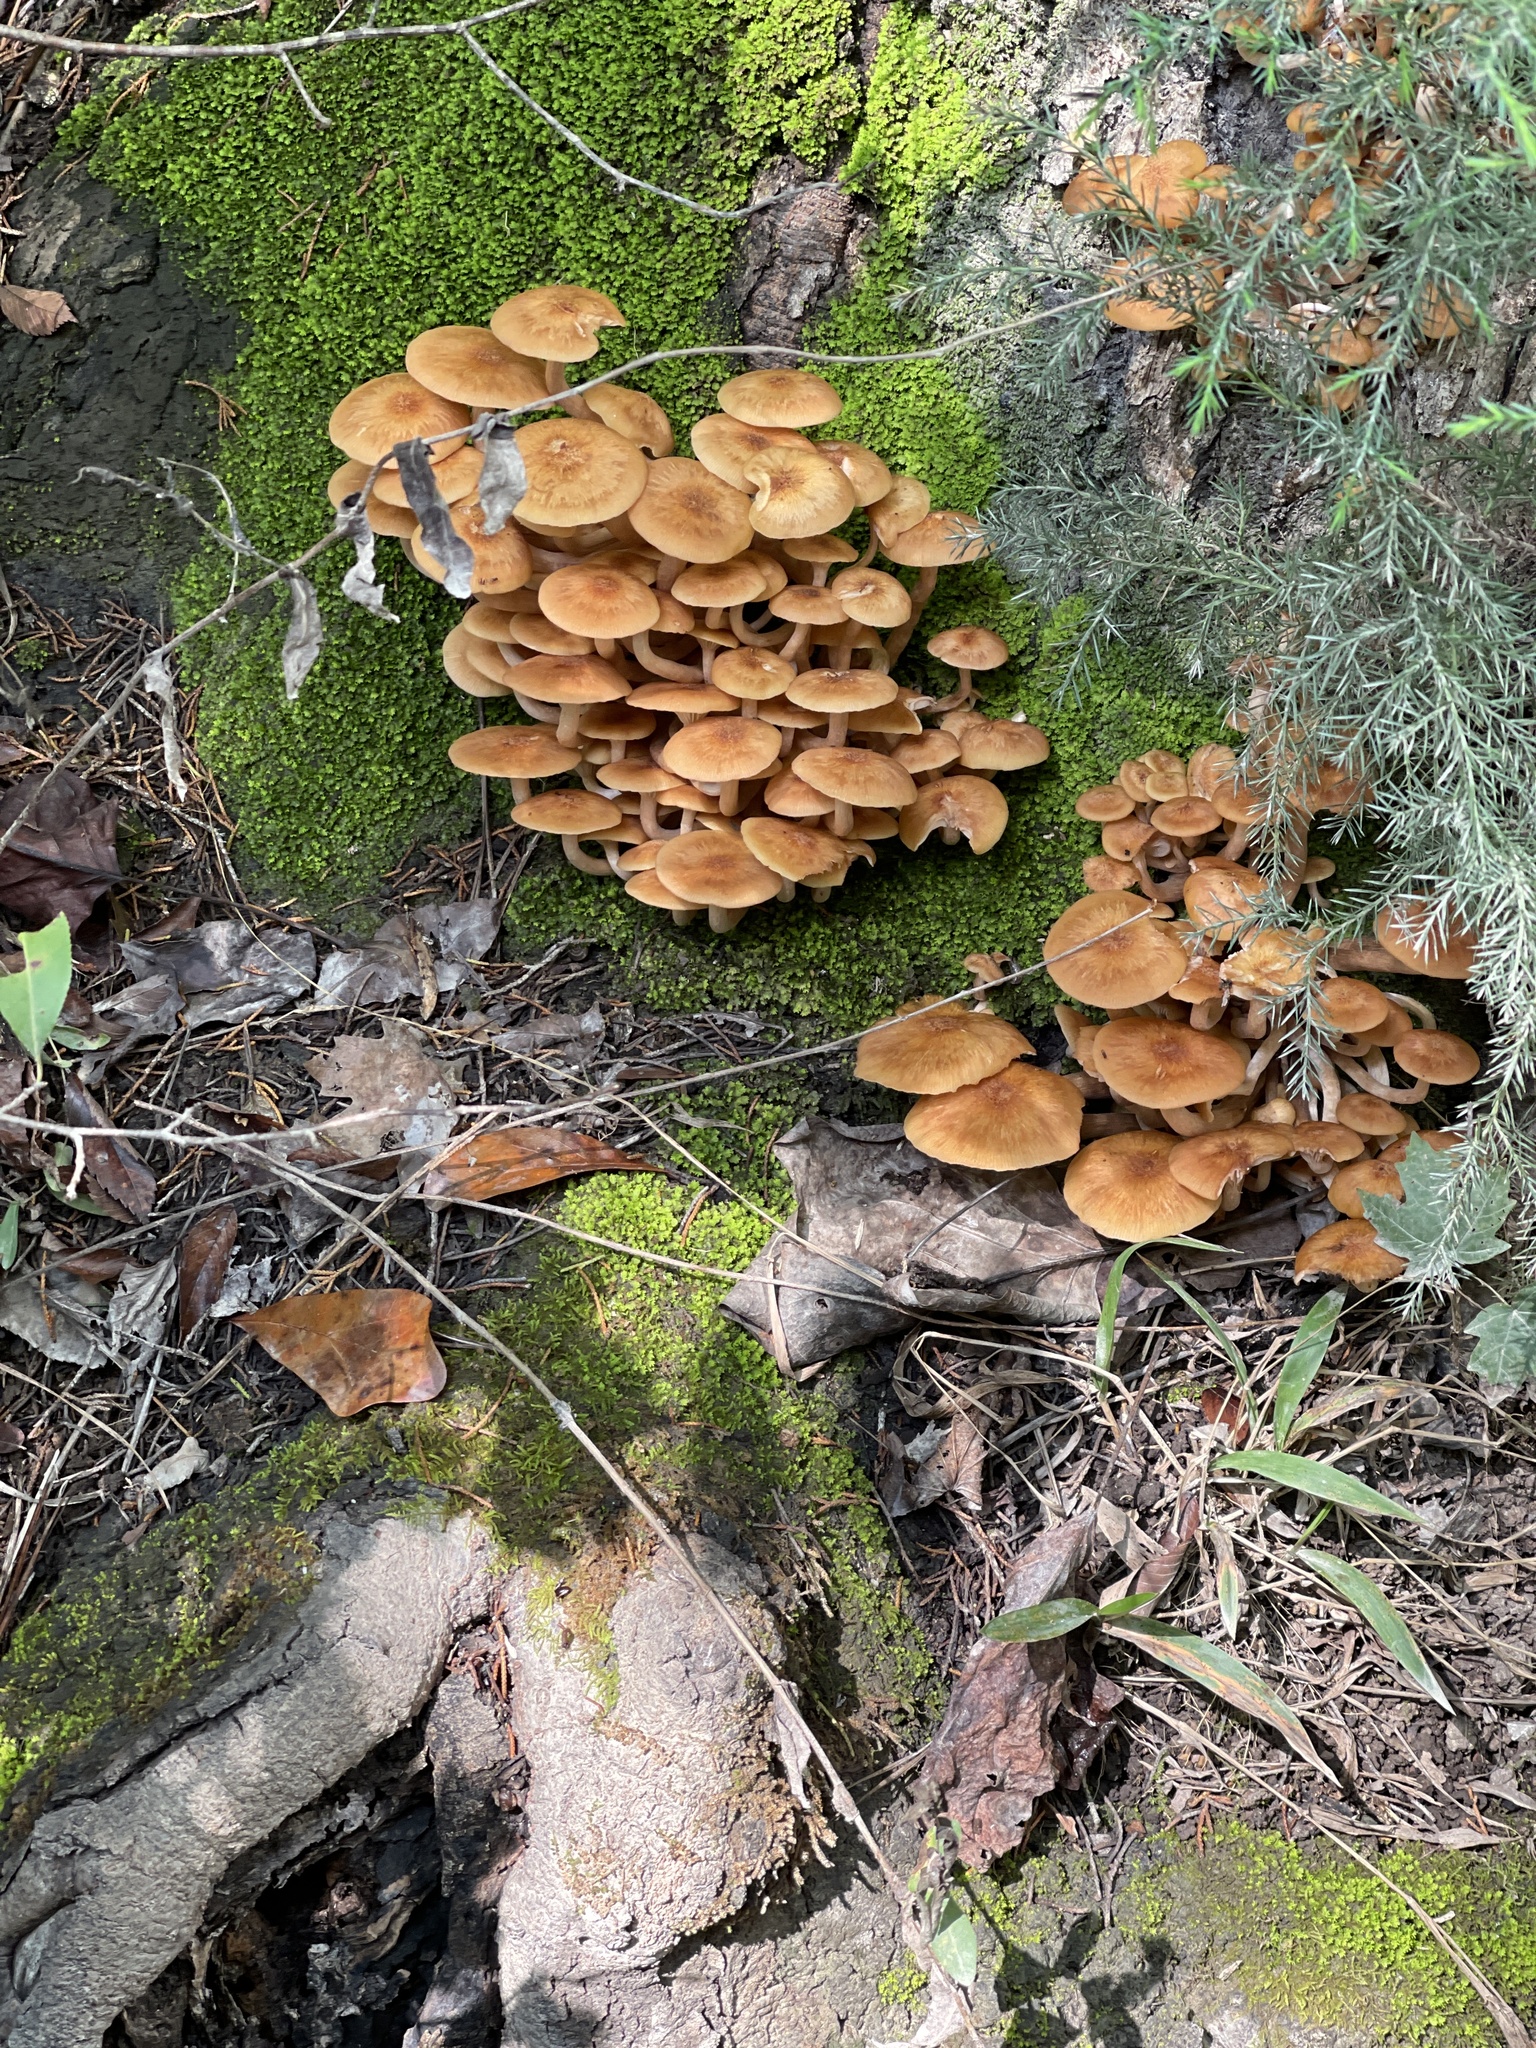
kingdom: Fungi
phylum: Basidiomycota
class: Agaricomycetes
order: Agaricales
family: Physalacriaceae
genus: Desarmillaria
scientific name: Desarmillaria caespitosa
